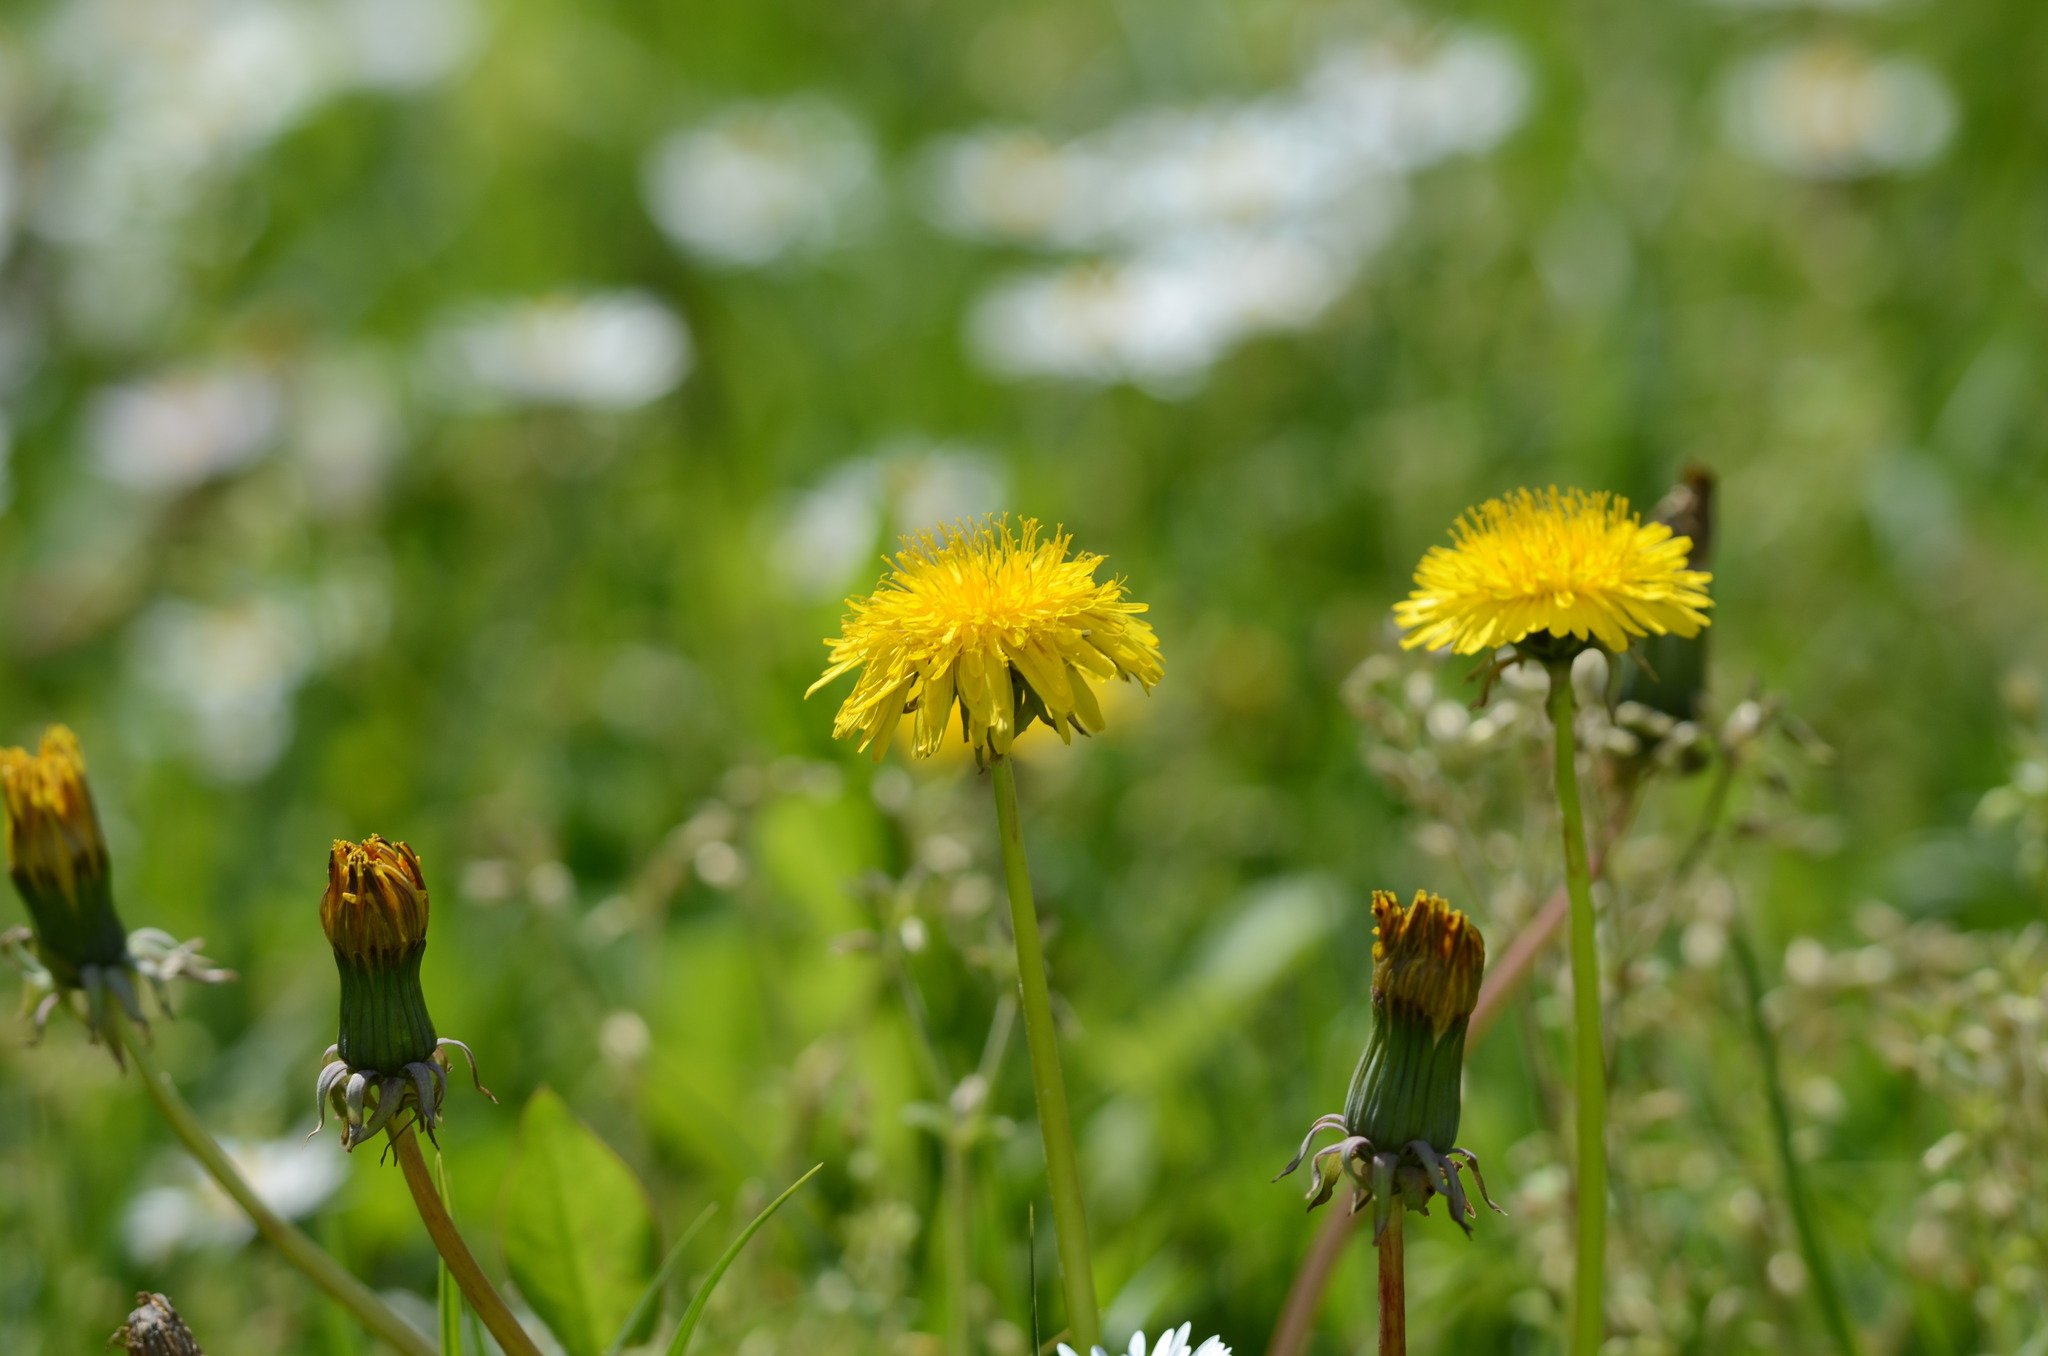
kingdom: Plantae
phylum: Tracheophyta
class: Magnoliopsida
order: Asterales
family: Asteraceae
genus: Taraxacum
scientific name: Taraxacum
